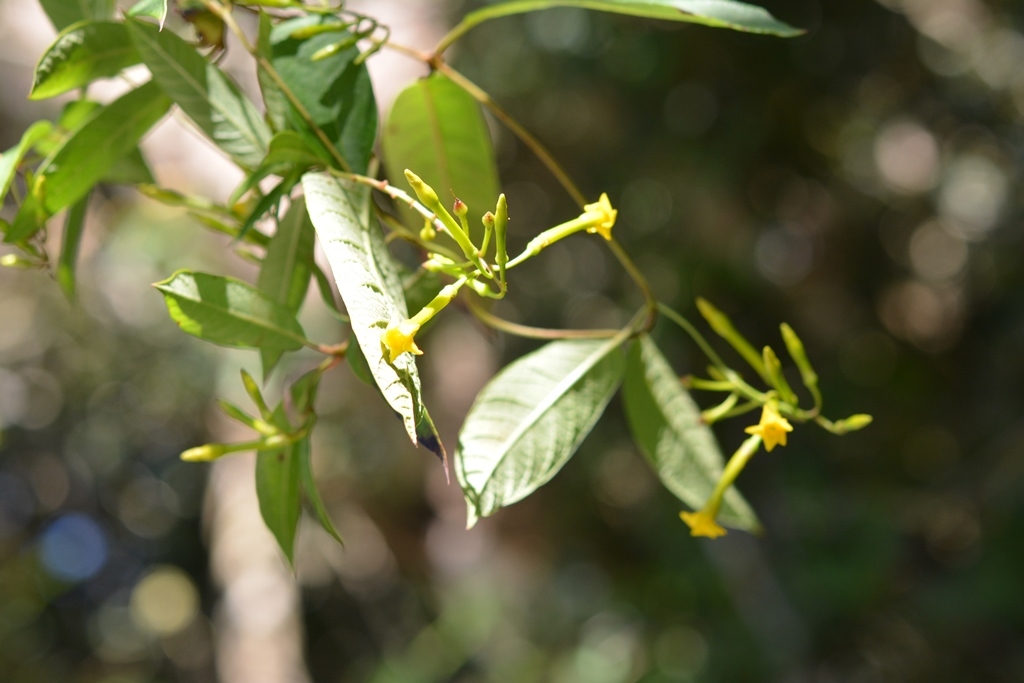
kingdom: Plantae
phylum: Tracheophyta
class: Magnoliopsida
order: Gentianales
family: Apocynaceae
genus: Mandevilla
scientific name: Mandevilla tubiflora
